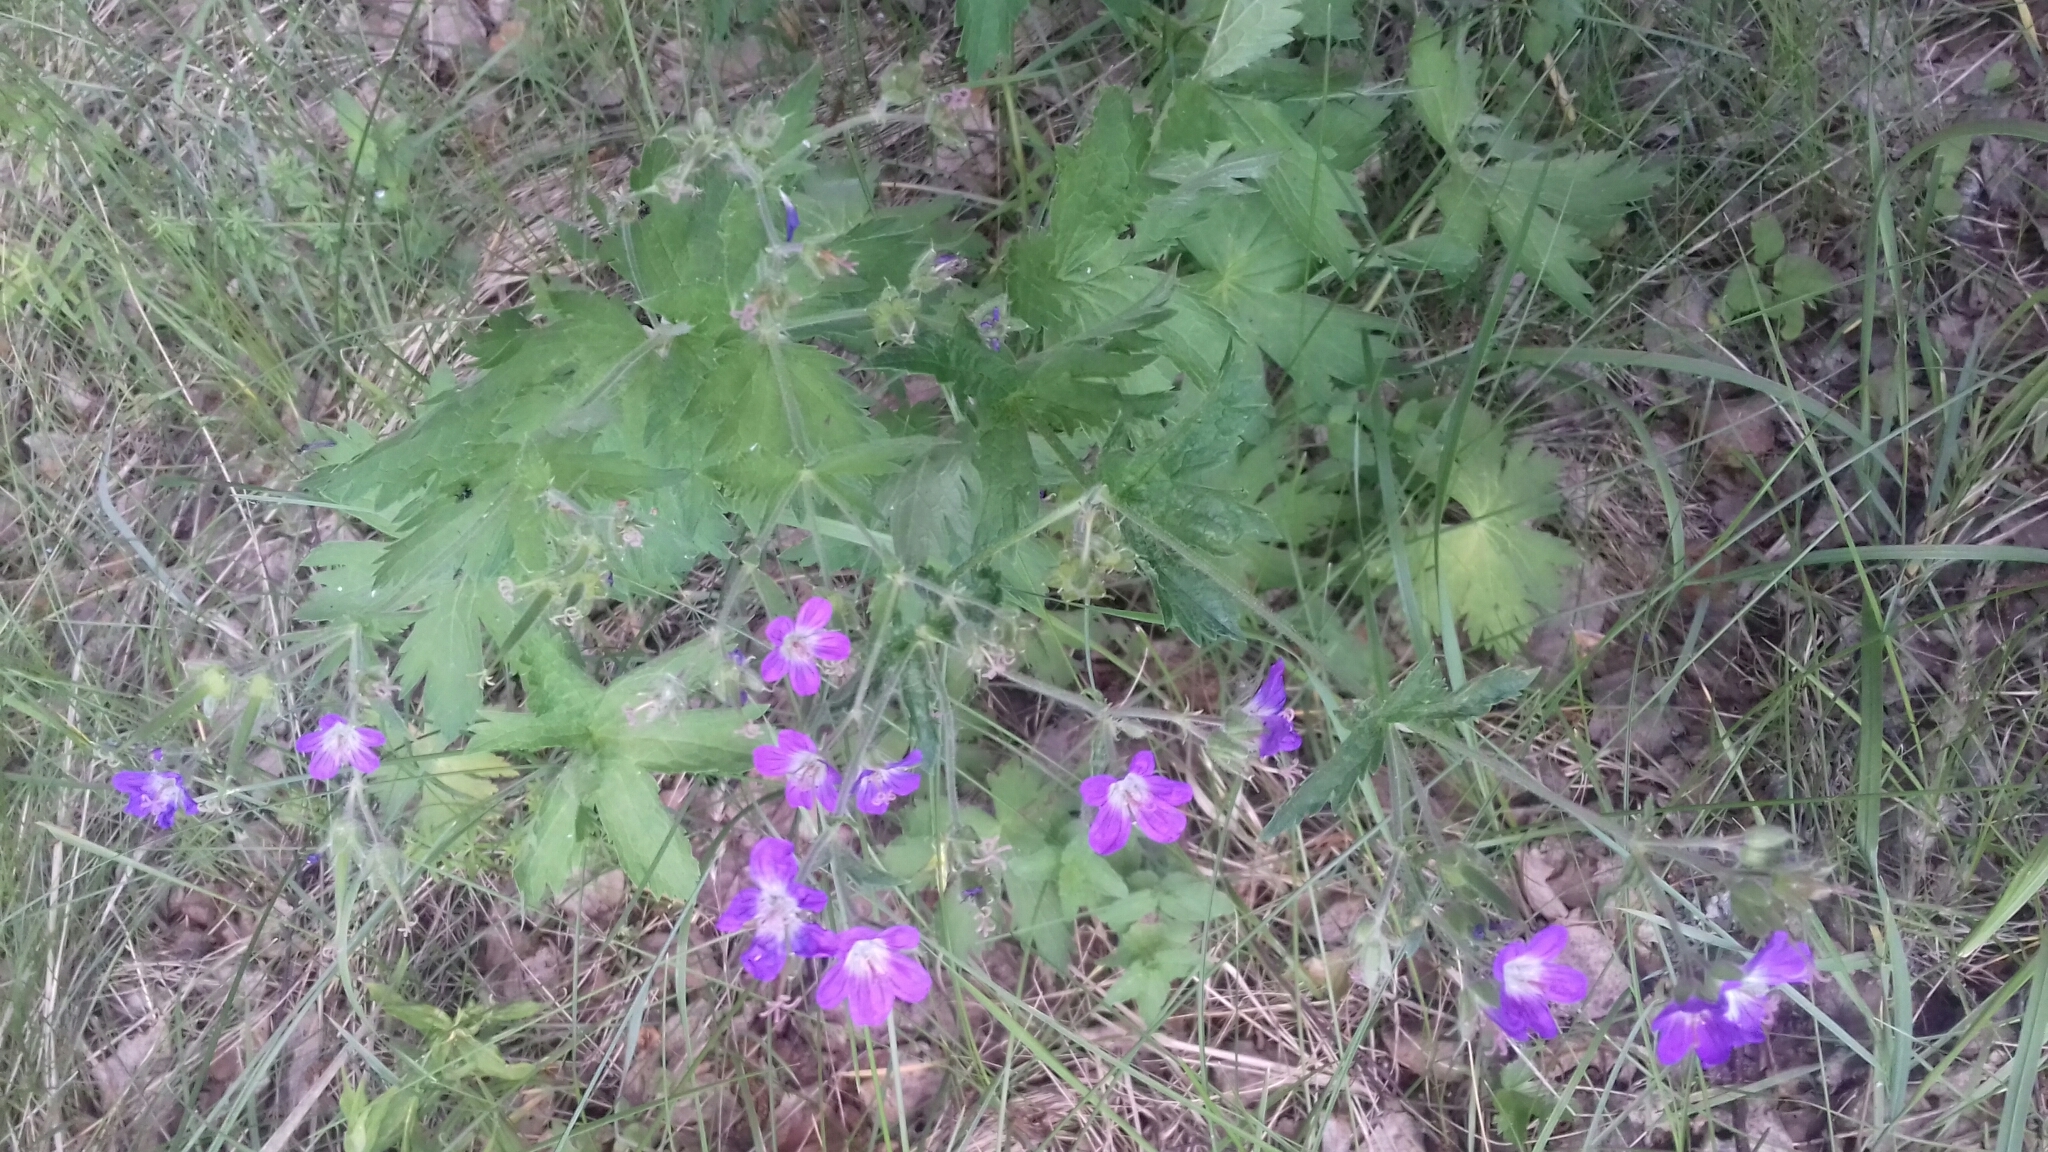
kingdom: Plantae
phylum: Tracheophyta
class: Magnoliopsida
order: Geraniales
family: Geraniaceae
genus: Geranium
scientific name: Geranium sylvaticum
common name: Wood crane's-bill
